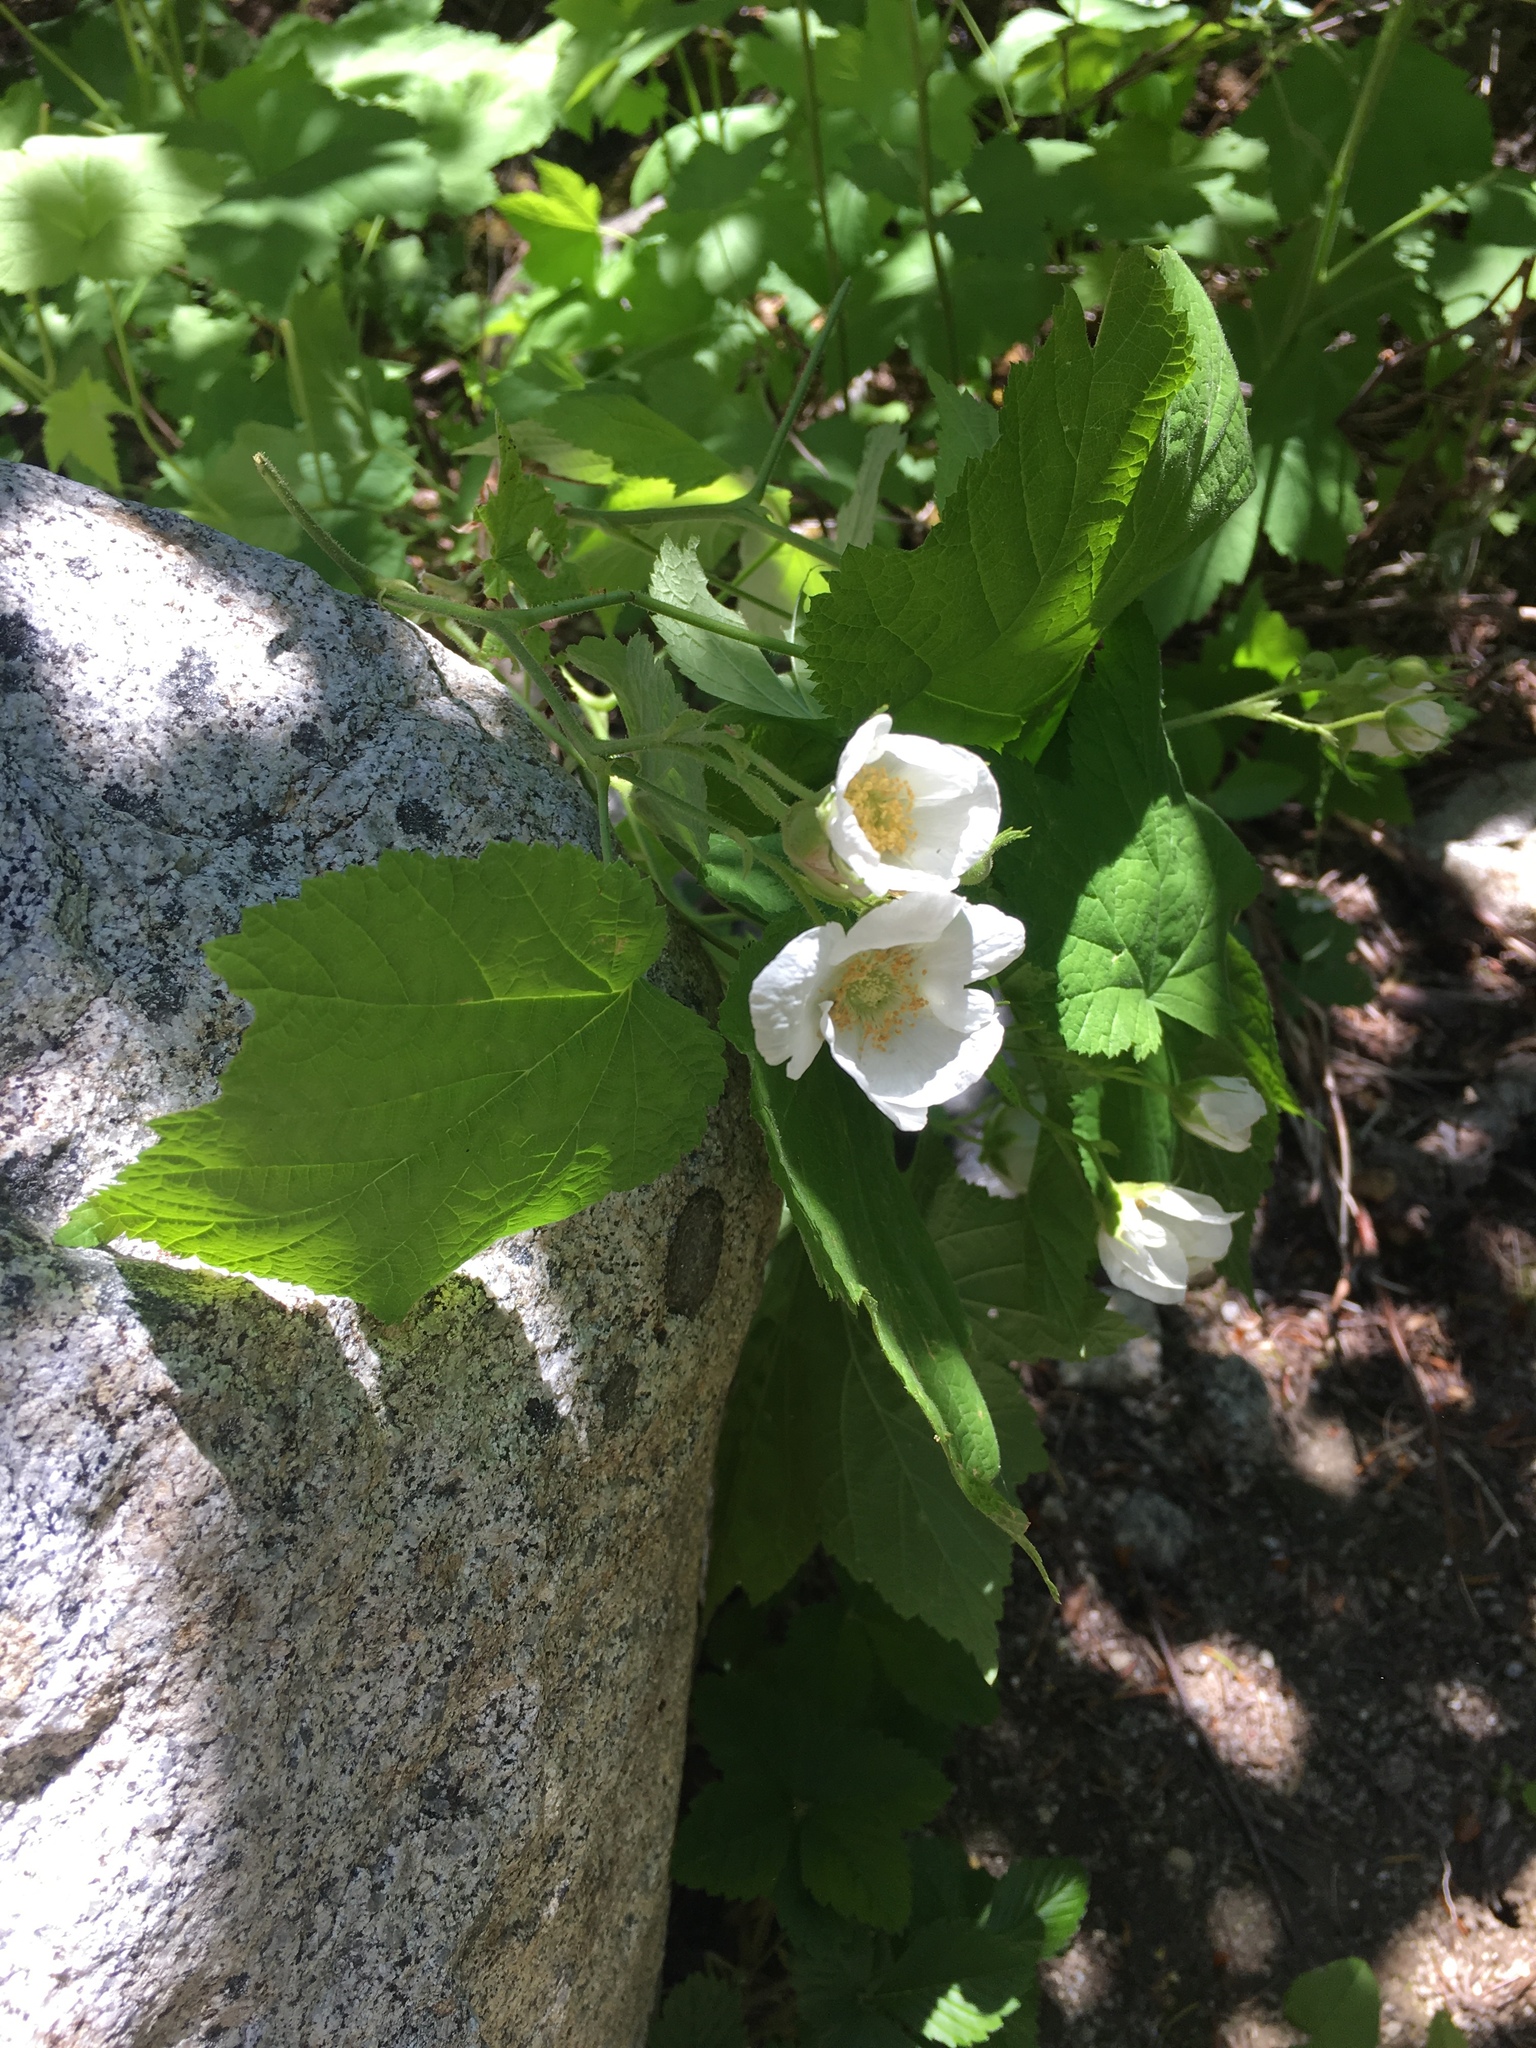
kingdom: Plantae
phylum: Tracheophyta
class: Magnoliopsida
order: Rosales
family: Rosaceae
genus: Rubus
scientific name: Rubus parviflorus
